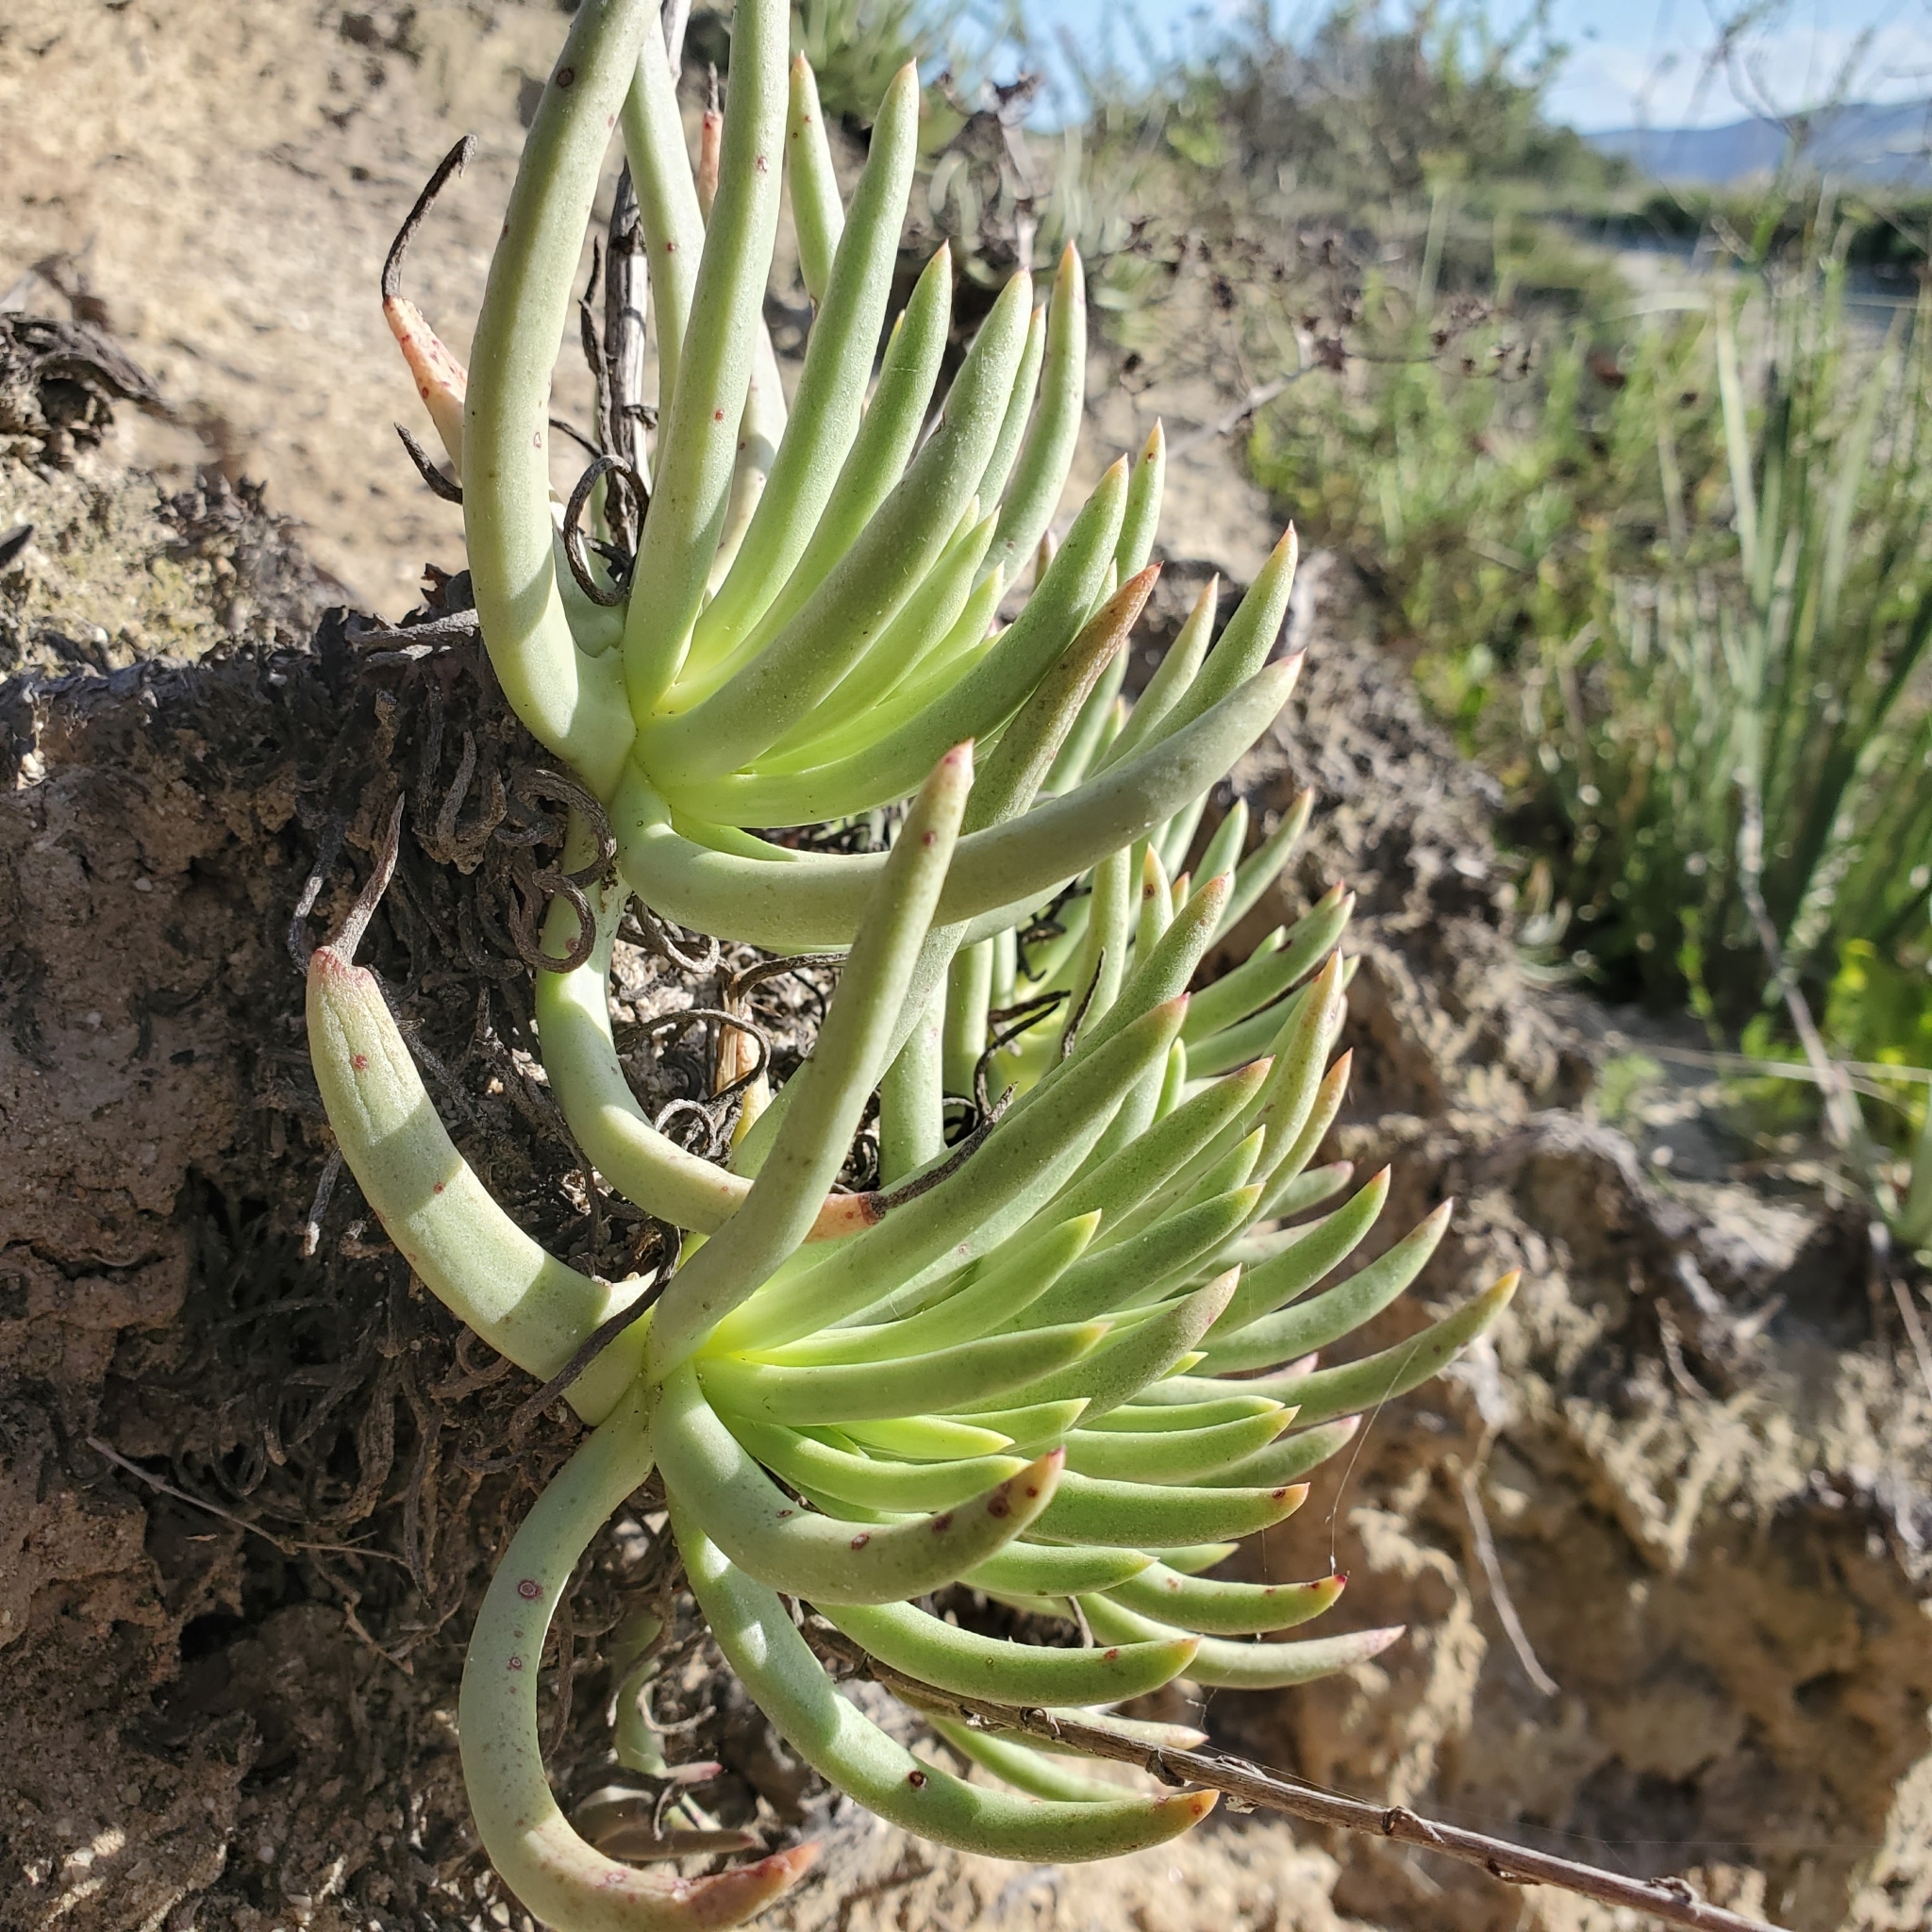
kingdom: Plantae
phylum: Tracheophyta
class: Magnoliopsida
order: Saxifragales
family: Crassulaceae
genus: Dudleya
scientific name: Dudleya edulis
